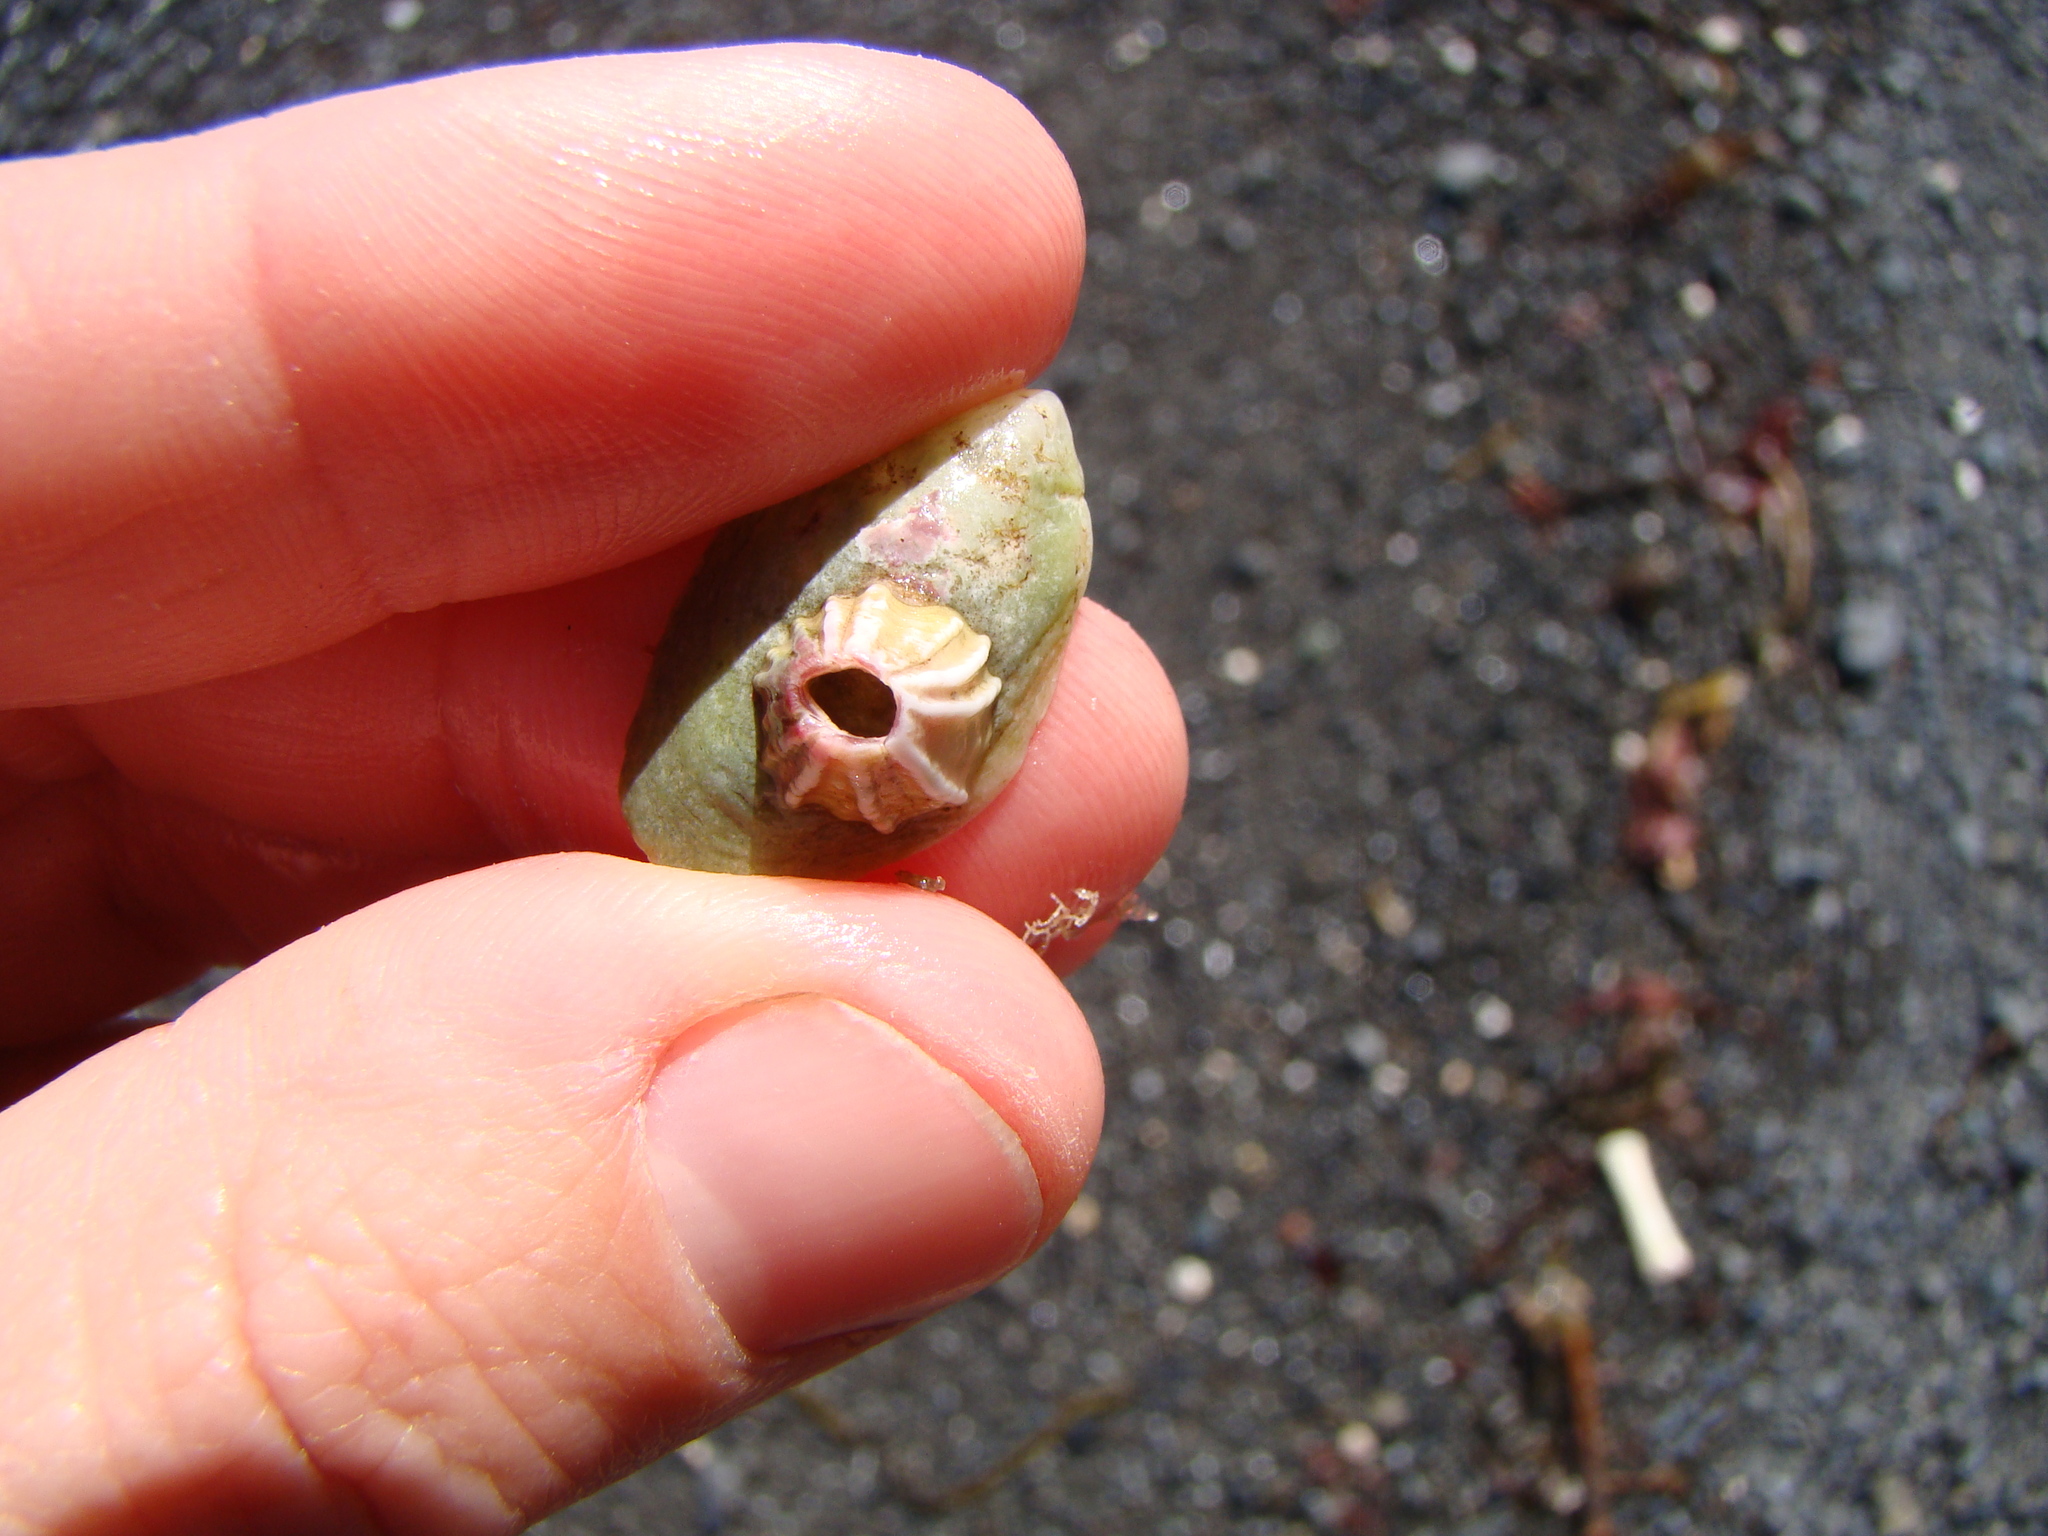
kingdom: Animalia
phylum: Arthropoda
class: Maxillopoda
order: Sessilia
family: Balanidae
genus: Notobalanus
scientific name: Notobalanus vestitus
